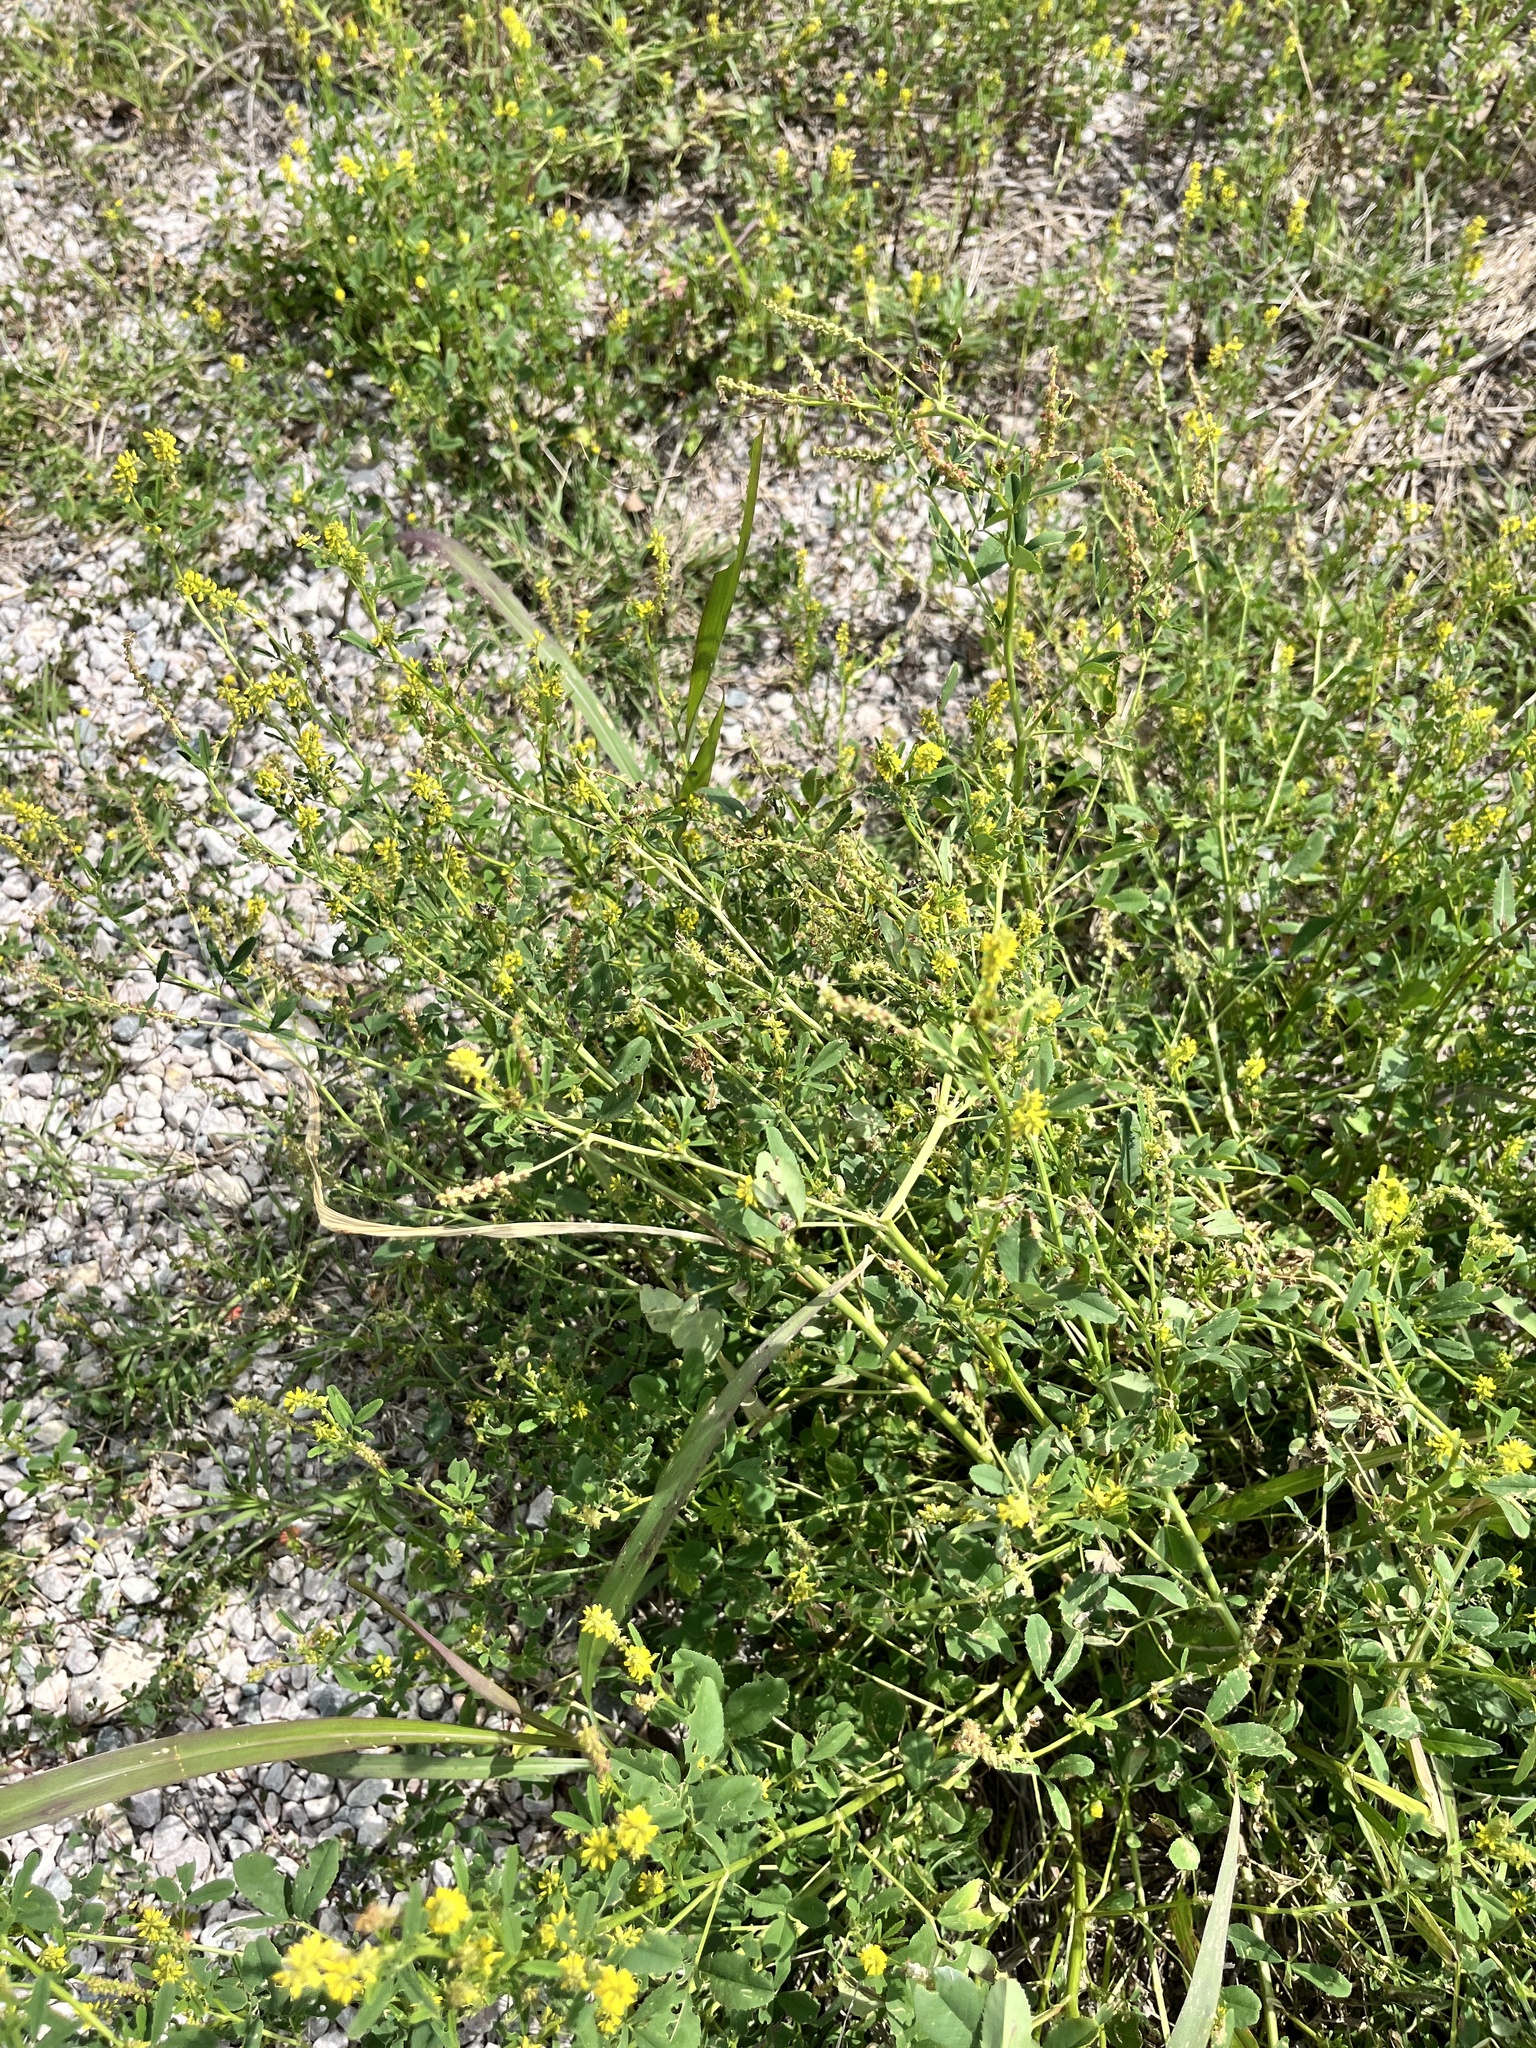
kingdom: Plantae
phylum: Tracheophyta
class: Magnoliopsida
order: Fabales
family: Fabaceae
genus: Melilotus
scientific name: Melilotus indicus
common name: Small melilot
